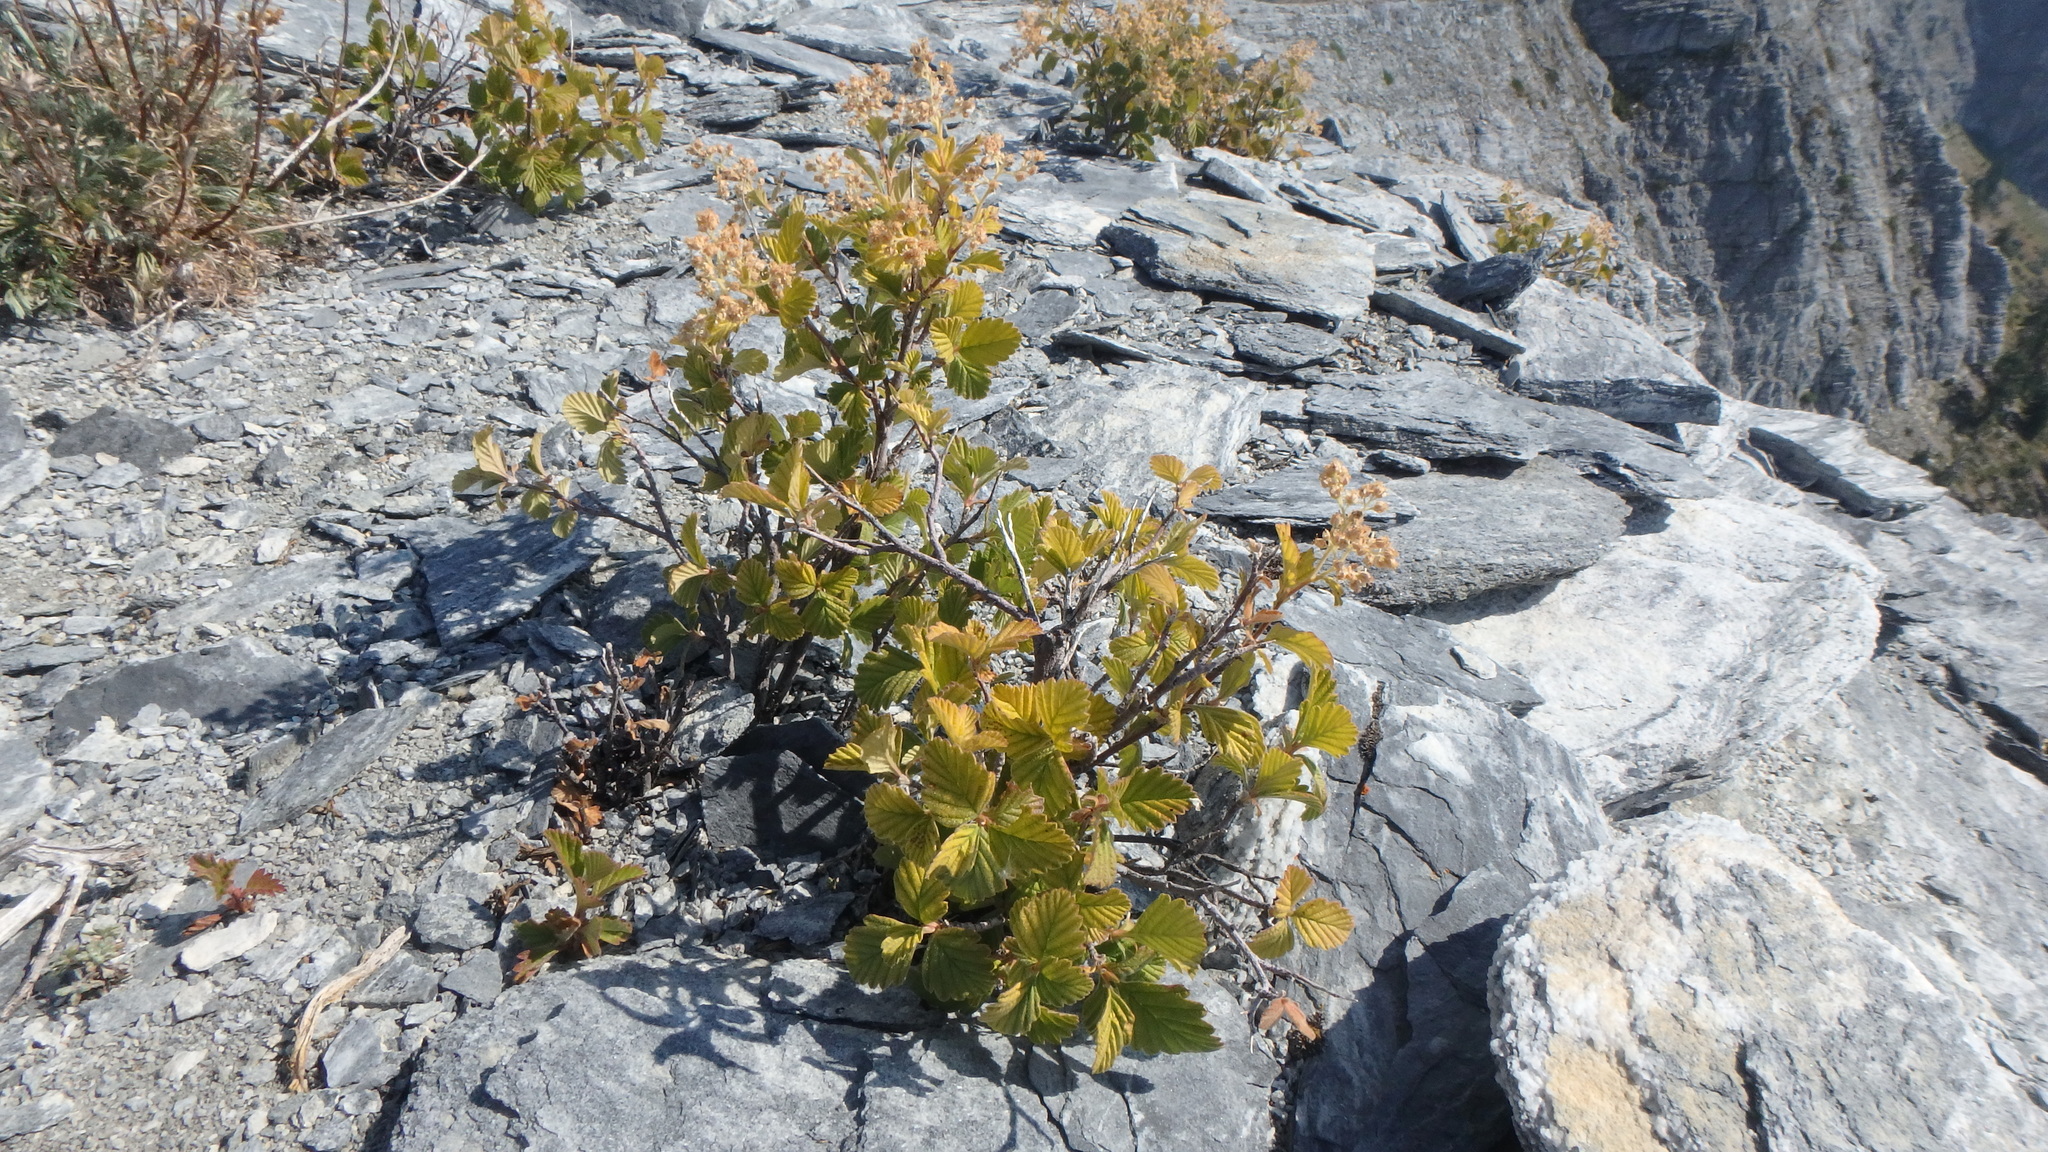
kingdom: Plantae
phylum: Tracheophyta
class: Magnoliopsida
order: Rosales
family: Rosaceae
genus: Holodiscus
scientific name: Holodiscus discolor
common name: Oceanspray
